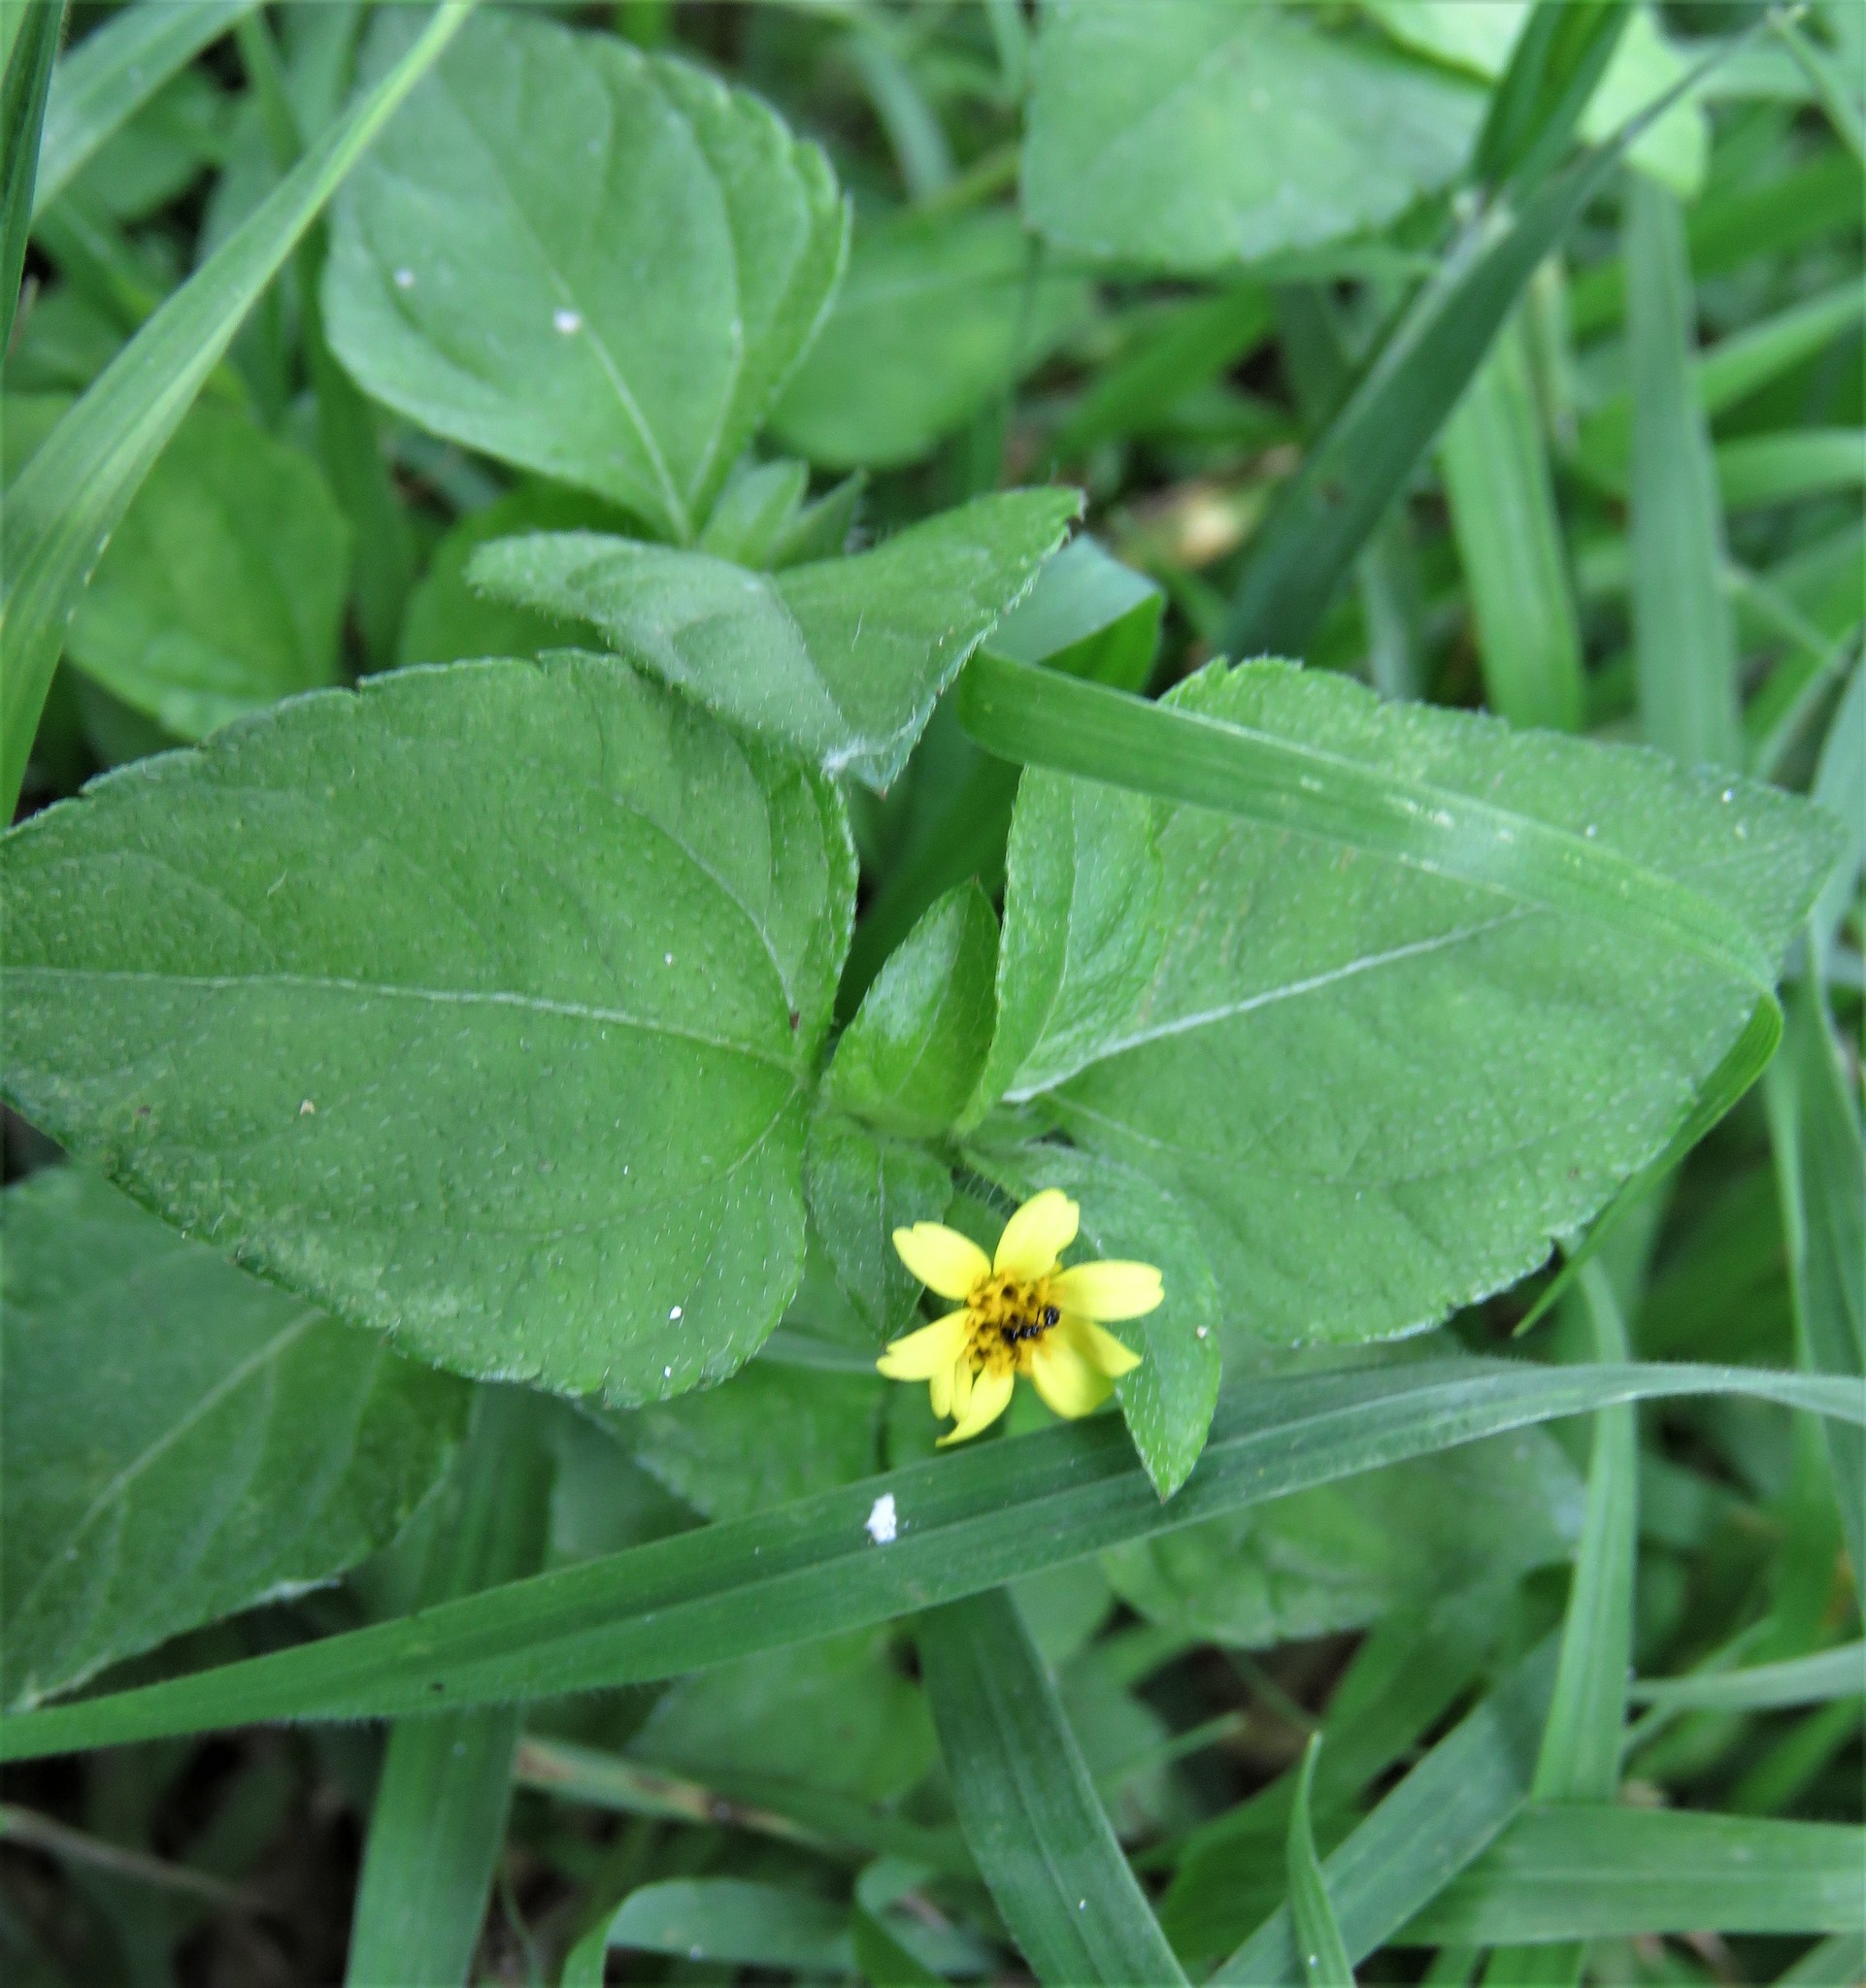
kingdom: Plantae
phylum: Tracheophyta
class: Magnoliopsida
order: Asterales
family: Asteraceae
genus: Calyptocarpus
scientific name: Calyptocarpus vialis
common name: Straggler daisy
